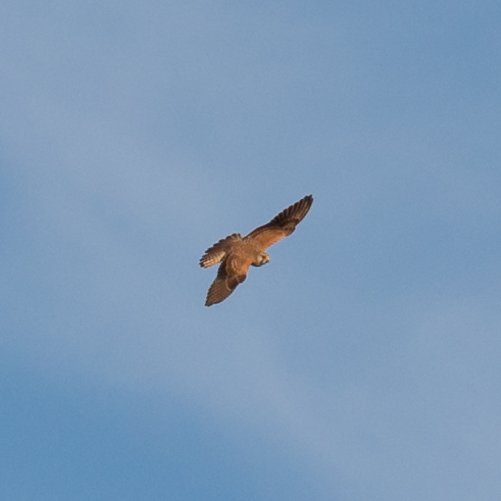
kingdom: Animalia
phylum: Chordata
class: Aves
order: Falconiformes
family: Falconidae
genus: Falco
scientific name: Falco tinnunculus
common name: Common kestrel
